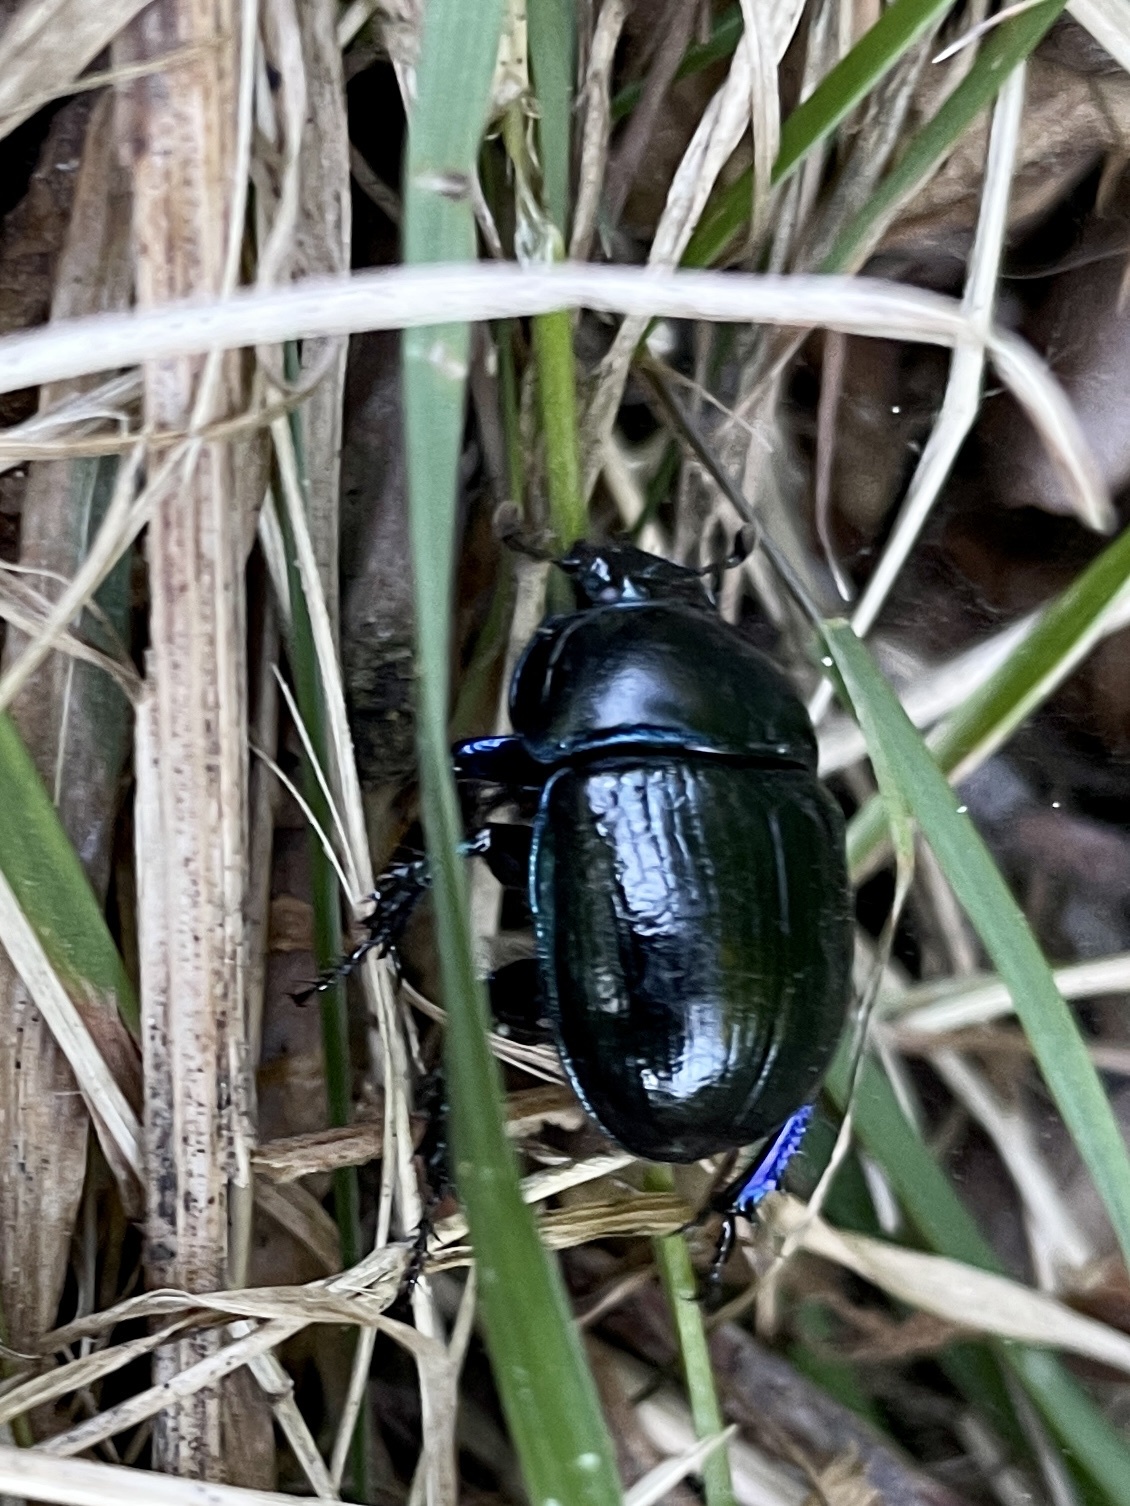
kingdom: Animalia
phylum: Arthropoda
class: Insecta
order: Coleoptera
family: Geotrupidae
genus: Anoplotrupes
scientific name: Anoplotrupes stercorosus
